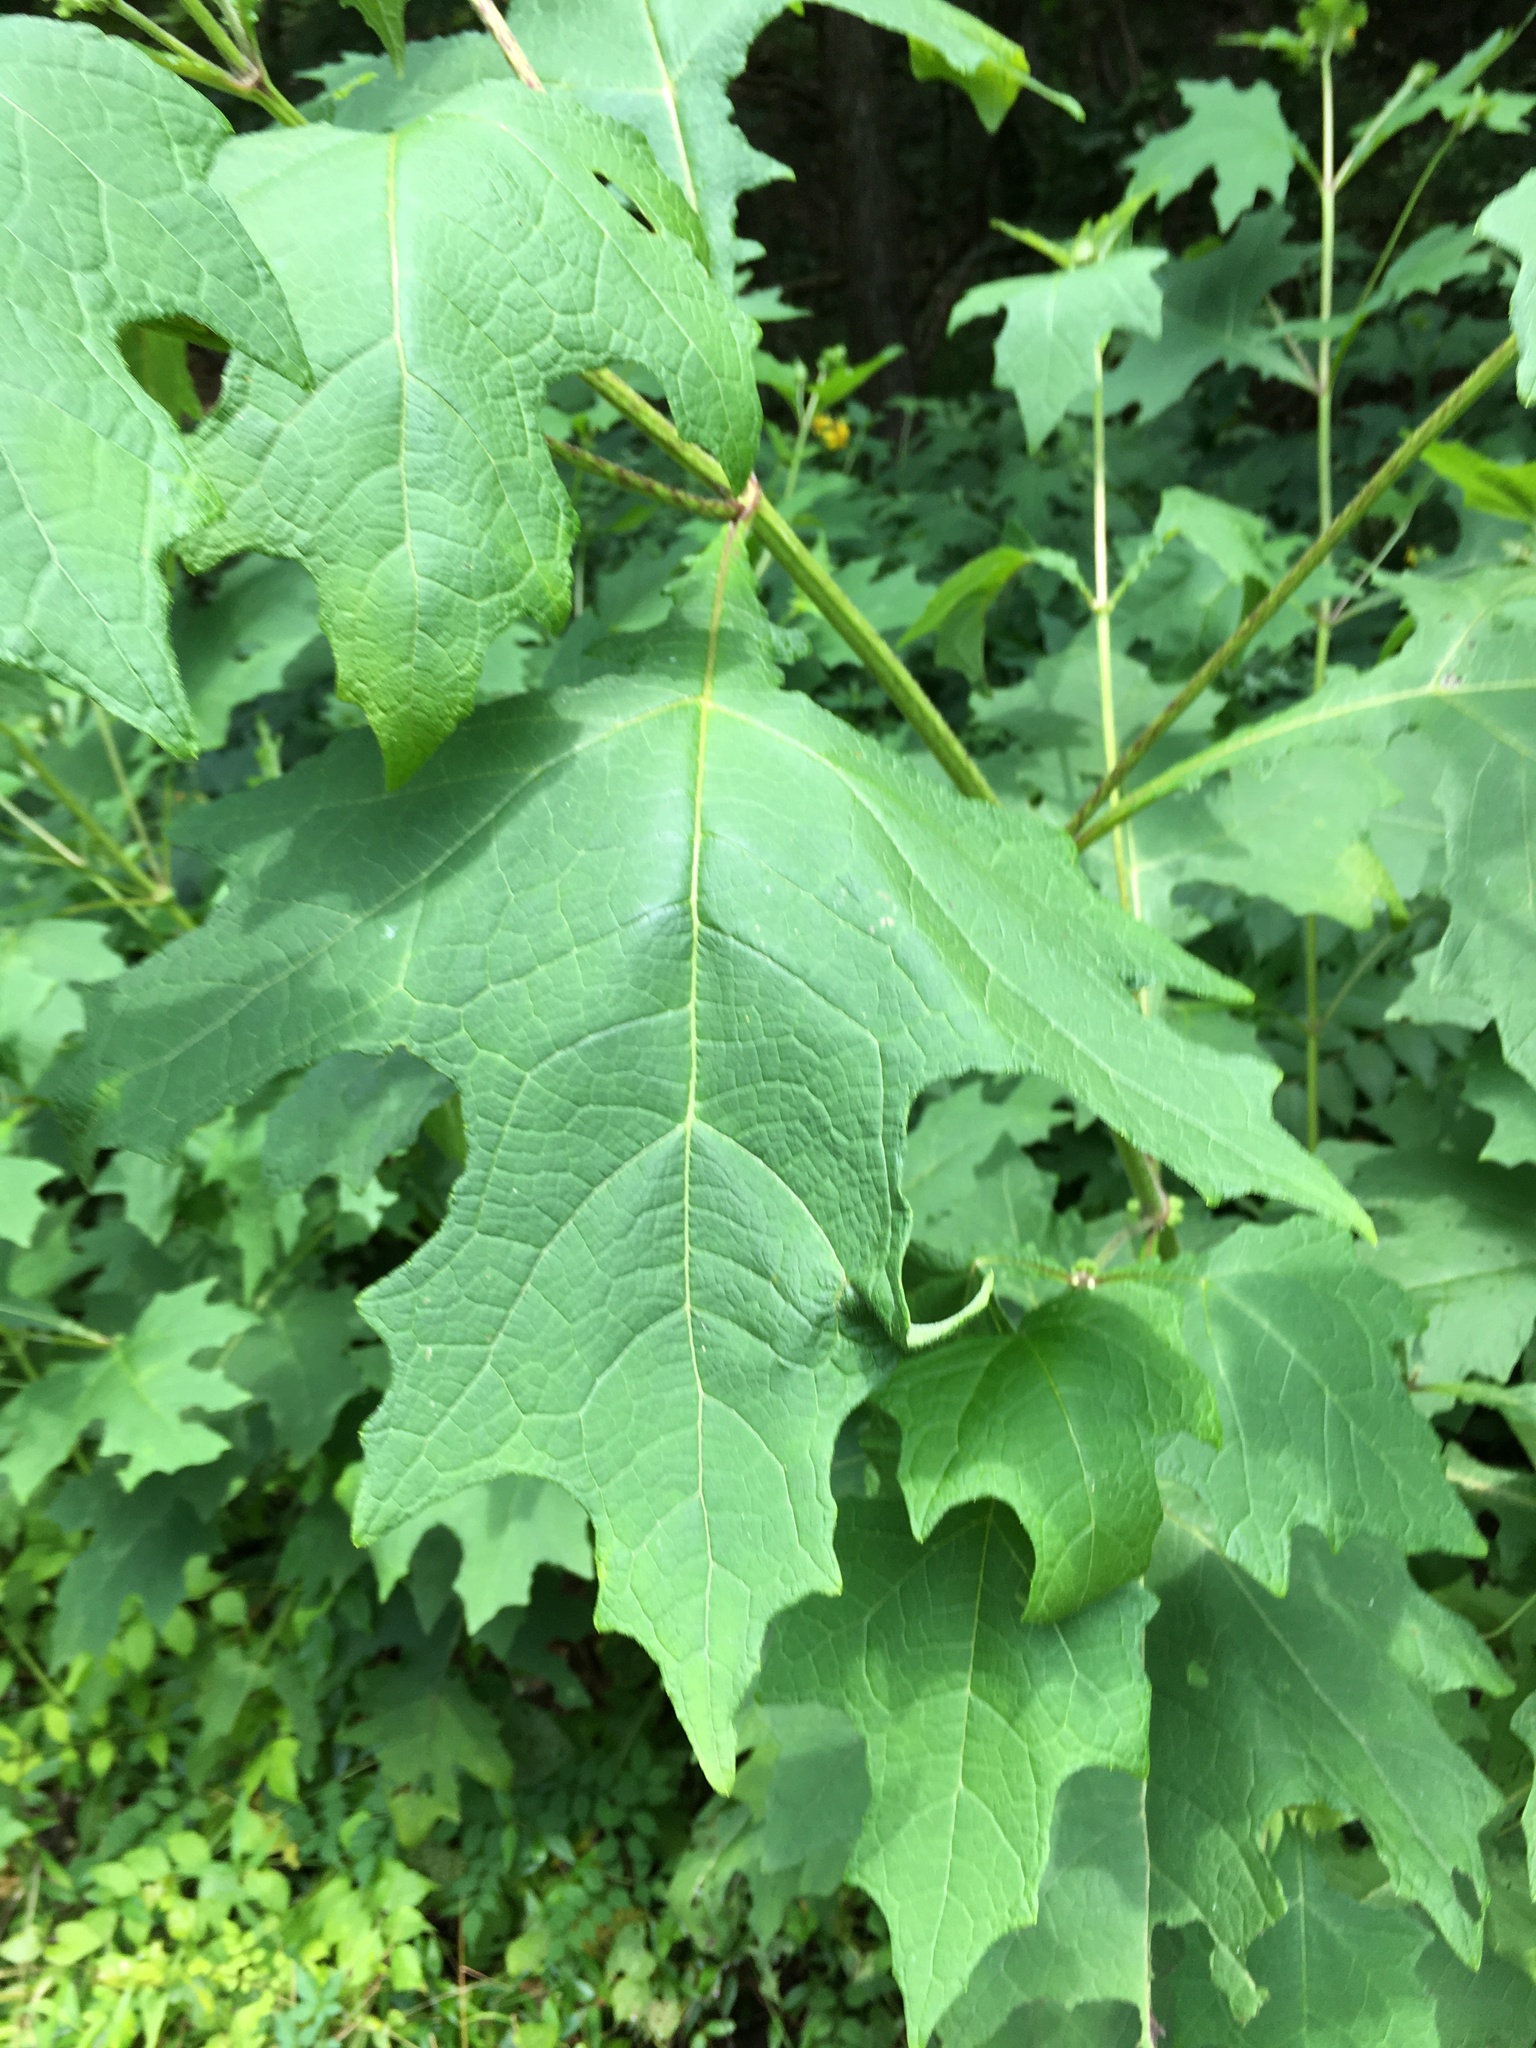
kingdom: Plantae
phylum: Tracheophyta
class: Magnoliopsida
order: Asterales
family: Asteraceae
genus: Smallanthus
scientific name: Smallanthus uvedalia
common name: Bear's-foot
